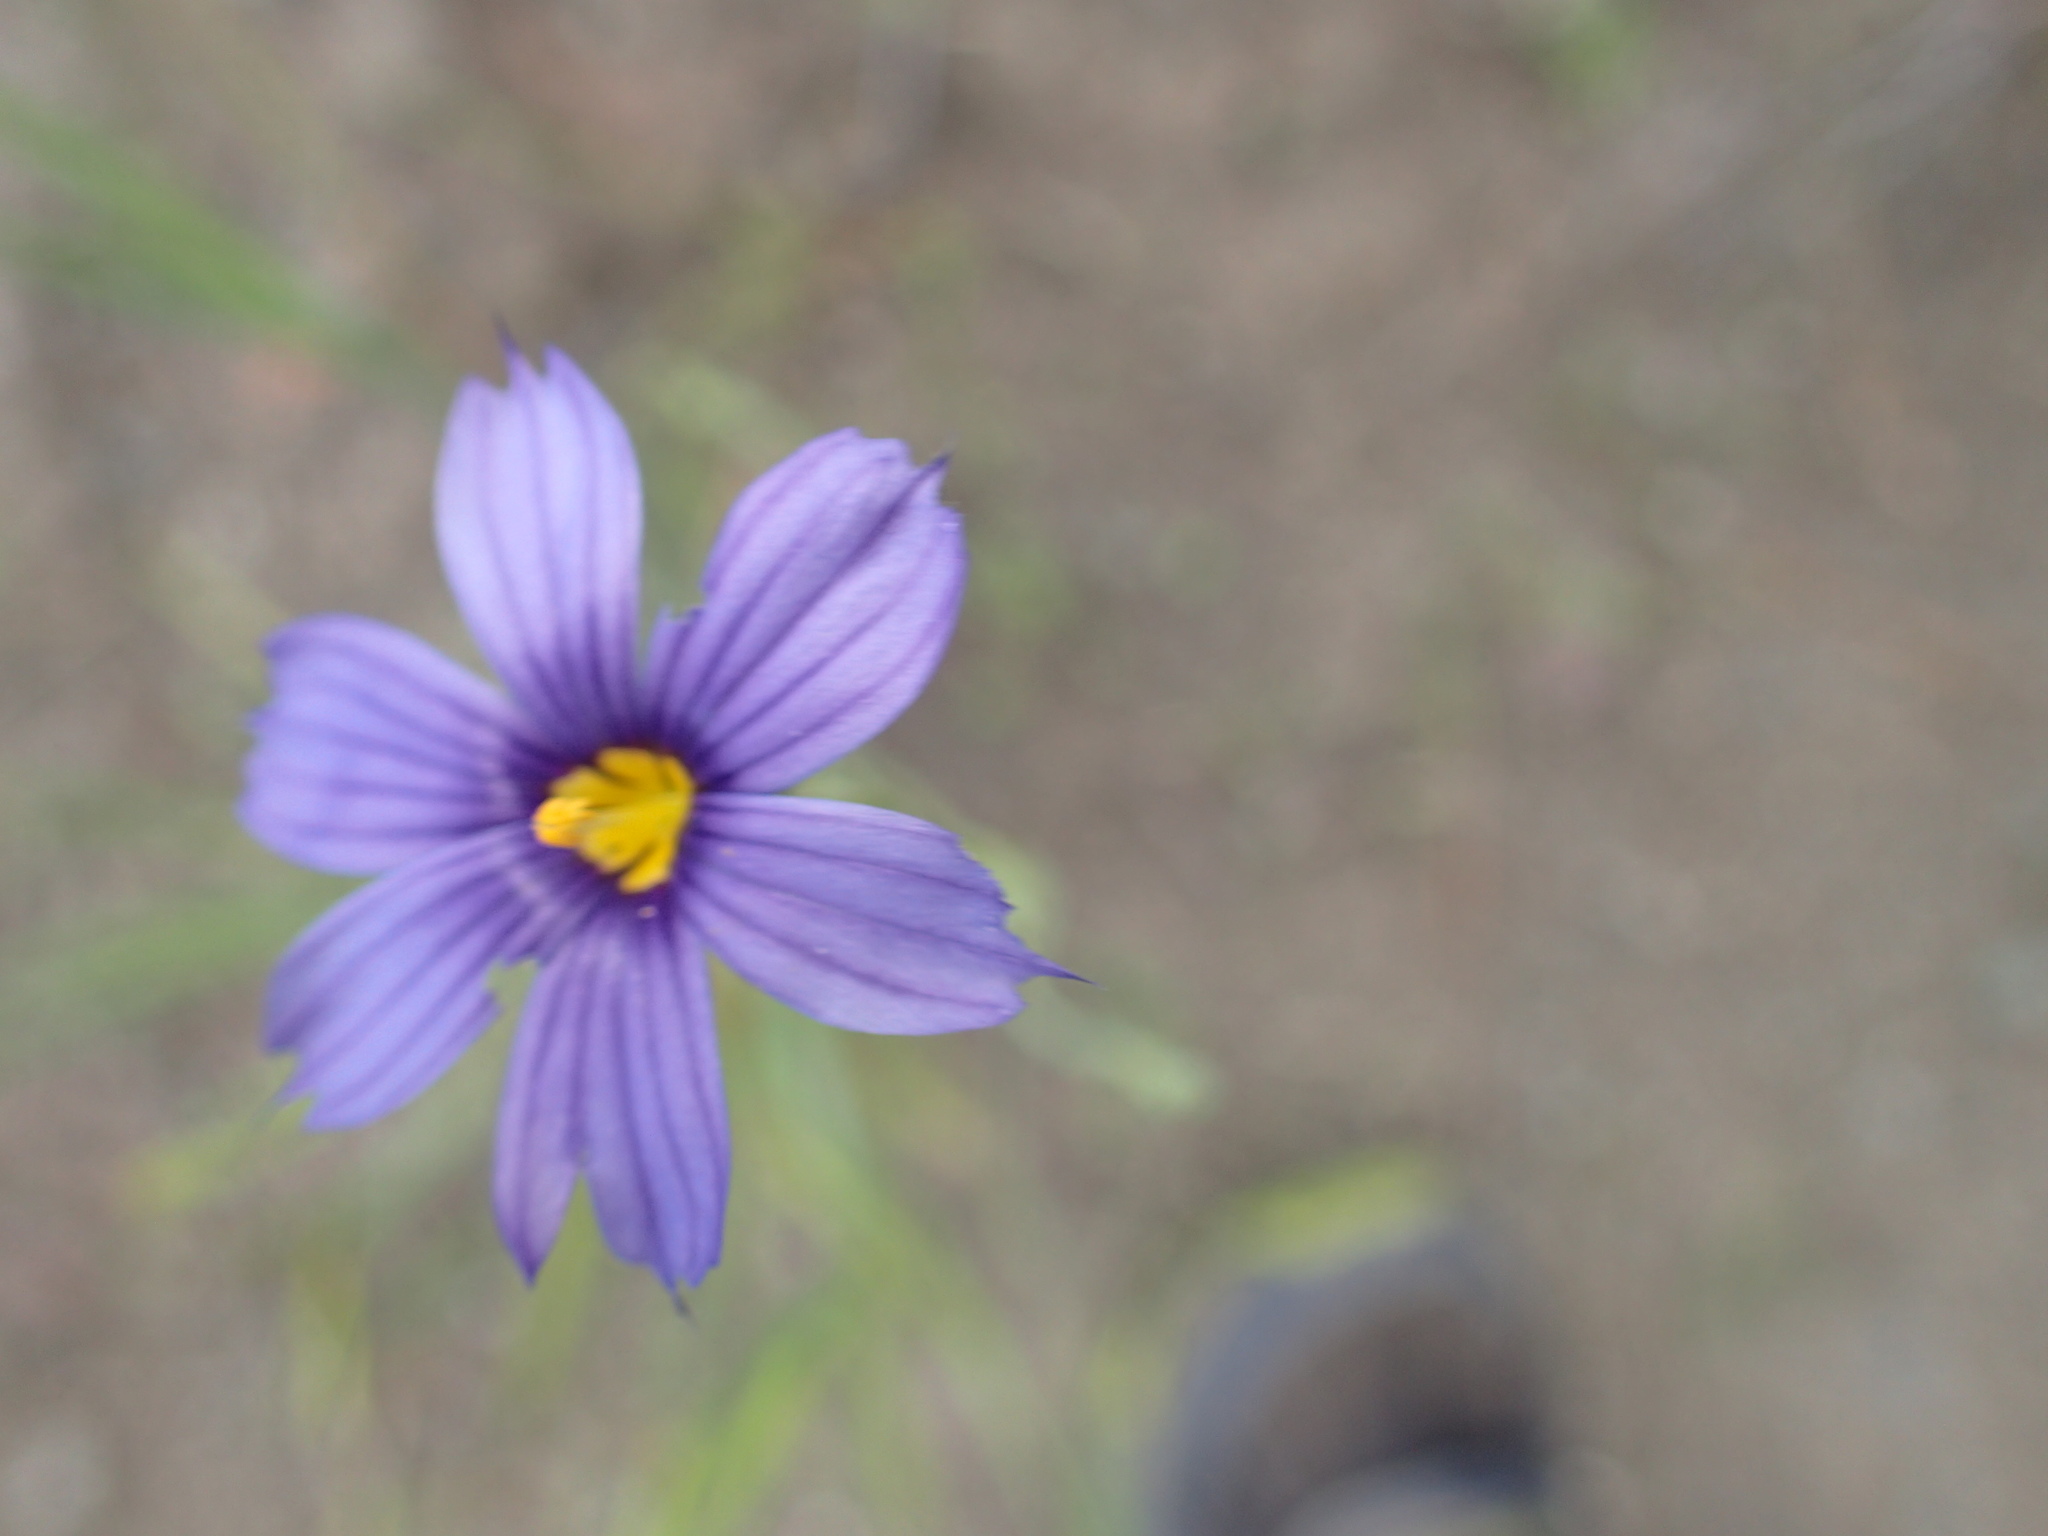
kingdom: Plantae
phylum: Tracheophyta
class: Liliopsida
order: Asparagales
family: Iridaceae
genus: Sisyrinchium
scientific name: Sisyrinchium bellum
